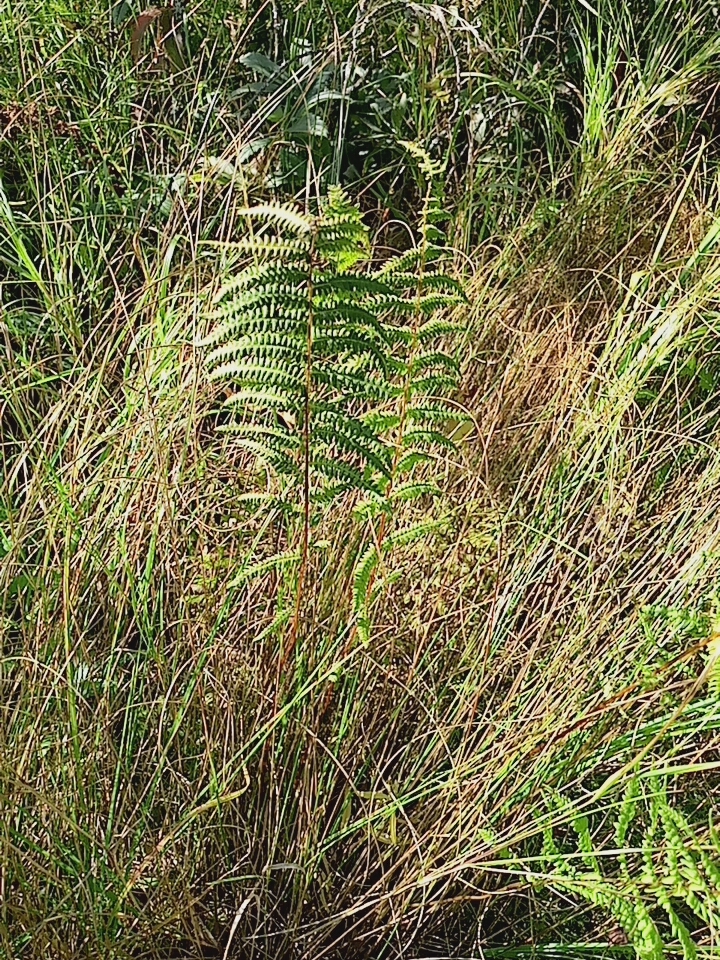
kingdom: Plantae
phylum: Tracheophyta
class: Polypodiopsida
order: Polypodiales
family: Thelypteridaceae
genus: Thelypteris
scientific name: Thelypteris palustris
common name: Marsh fern
